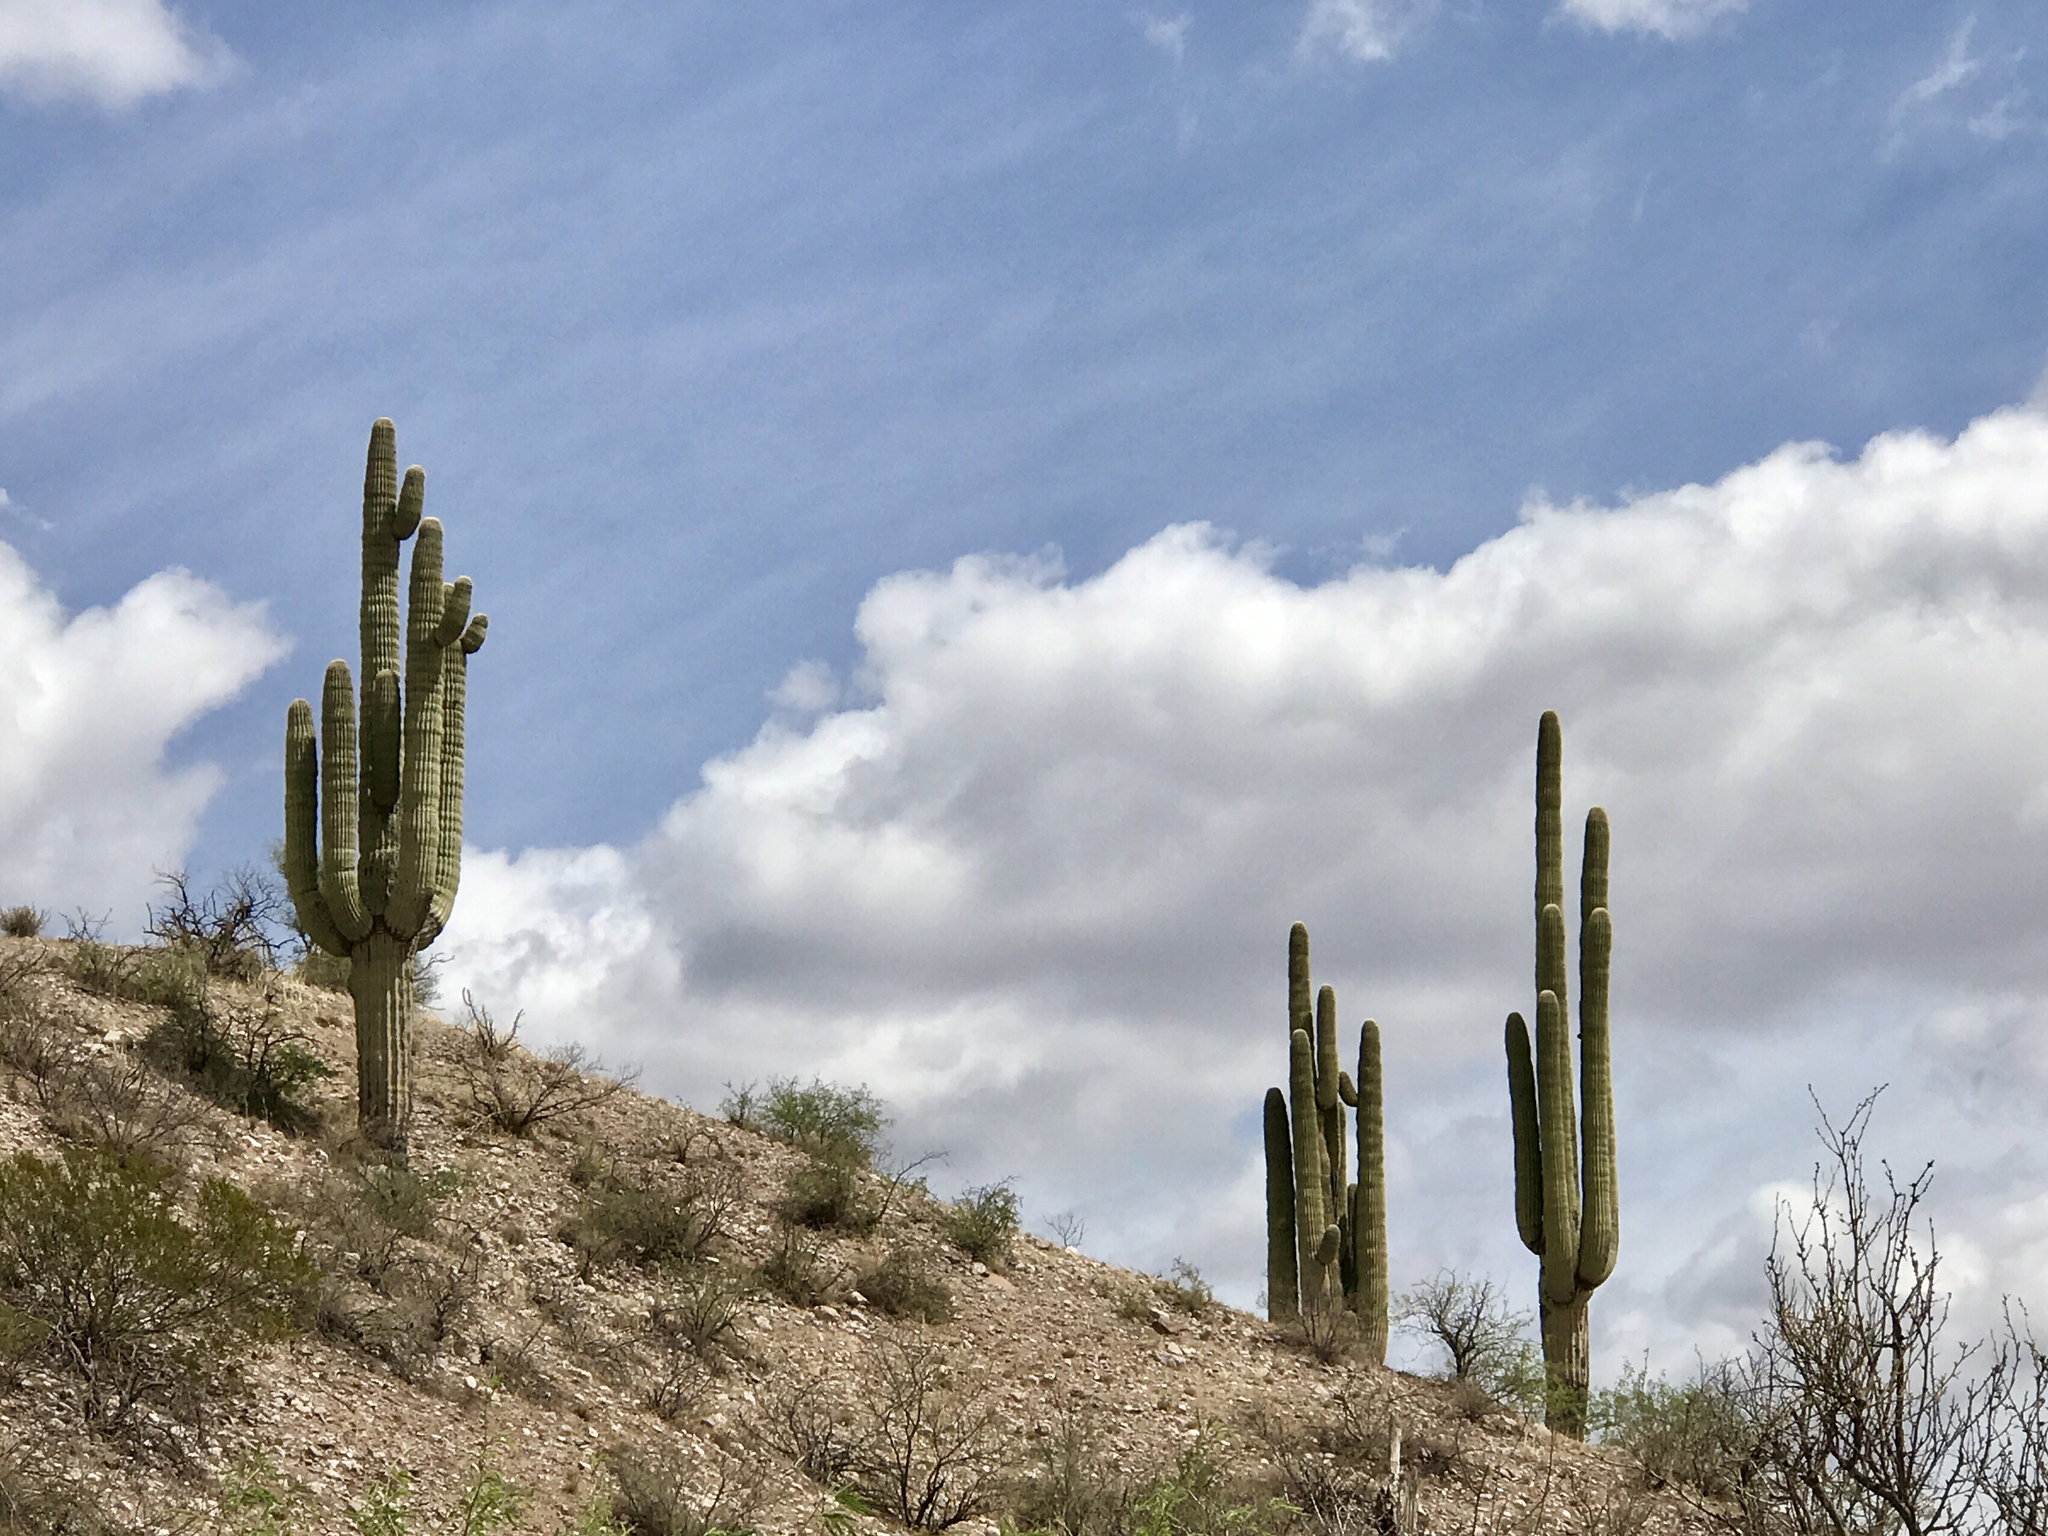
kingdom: Plantae
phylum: Tracheophyta
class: Magnoliopsida
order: Caryophyllales
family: Cactaceae
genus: Carnegiea
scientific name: Carnegiea gigantea
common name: Saguaro
